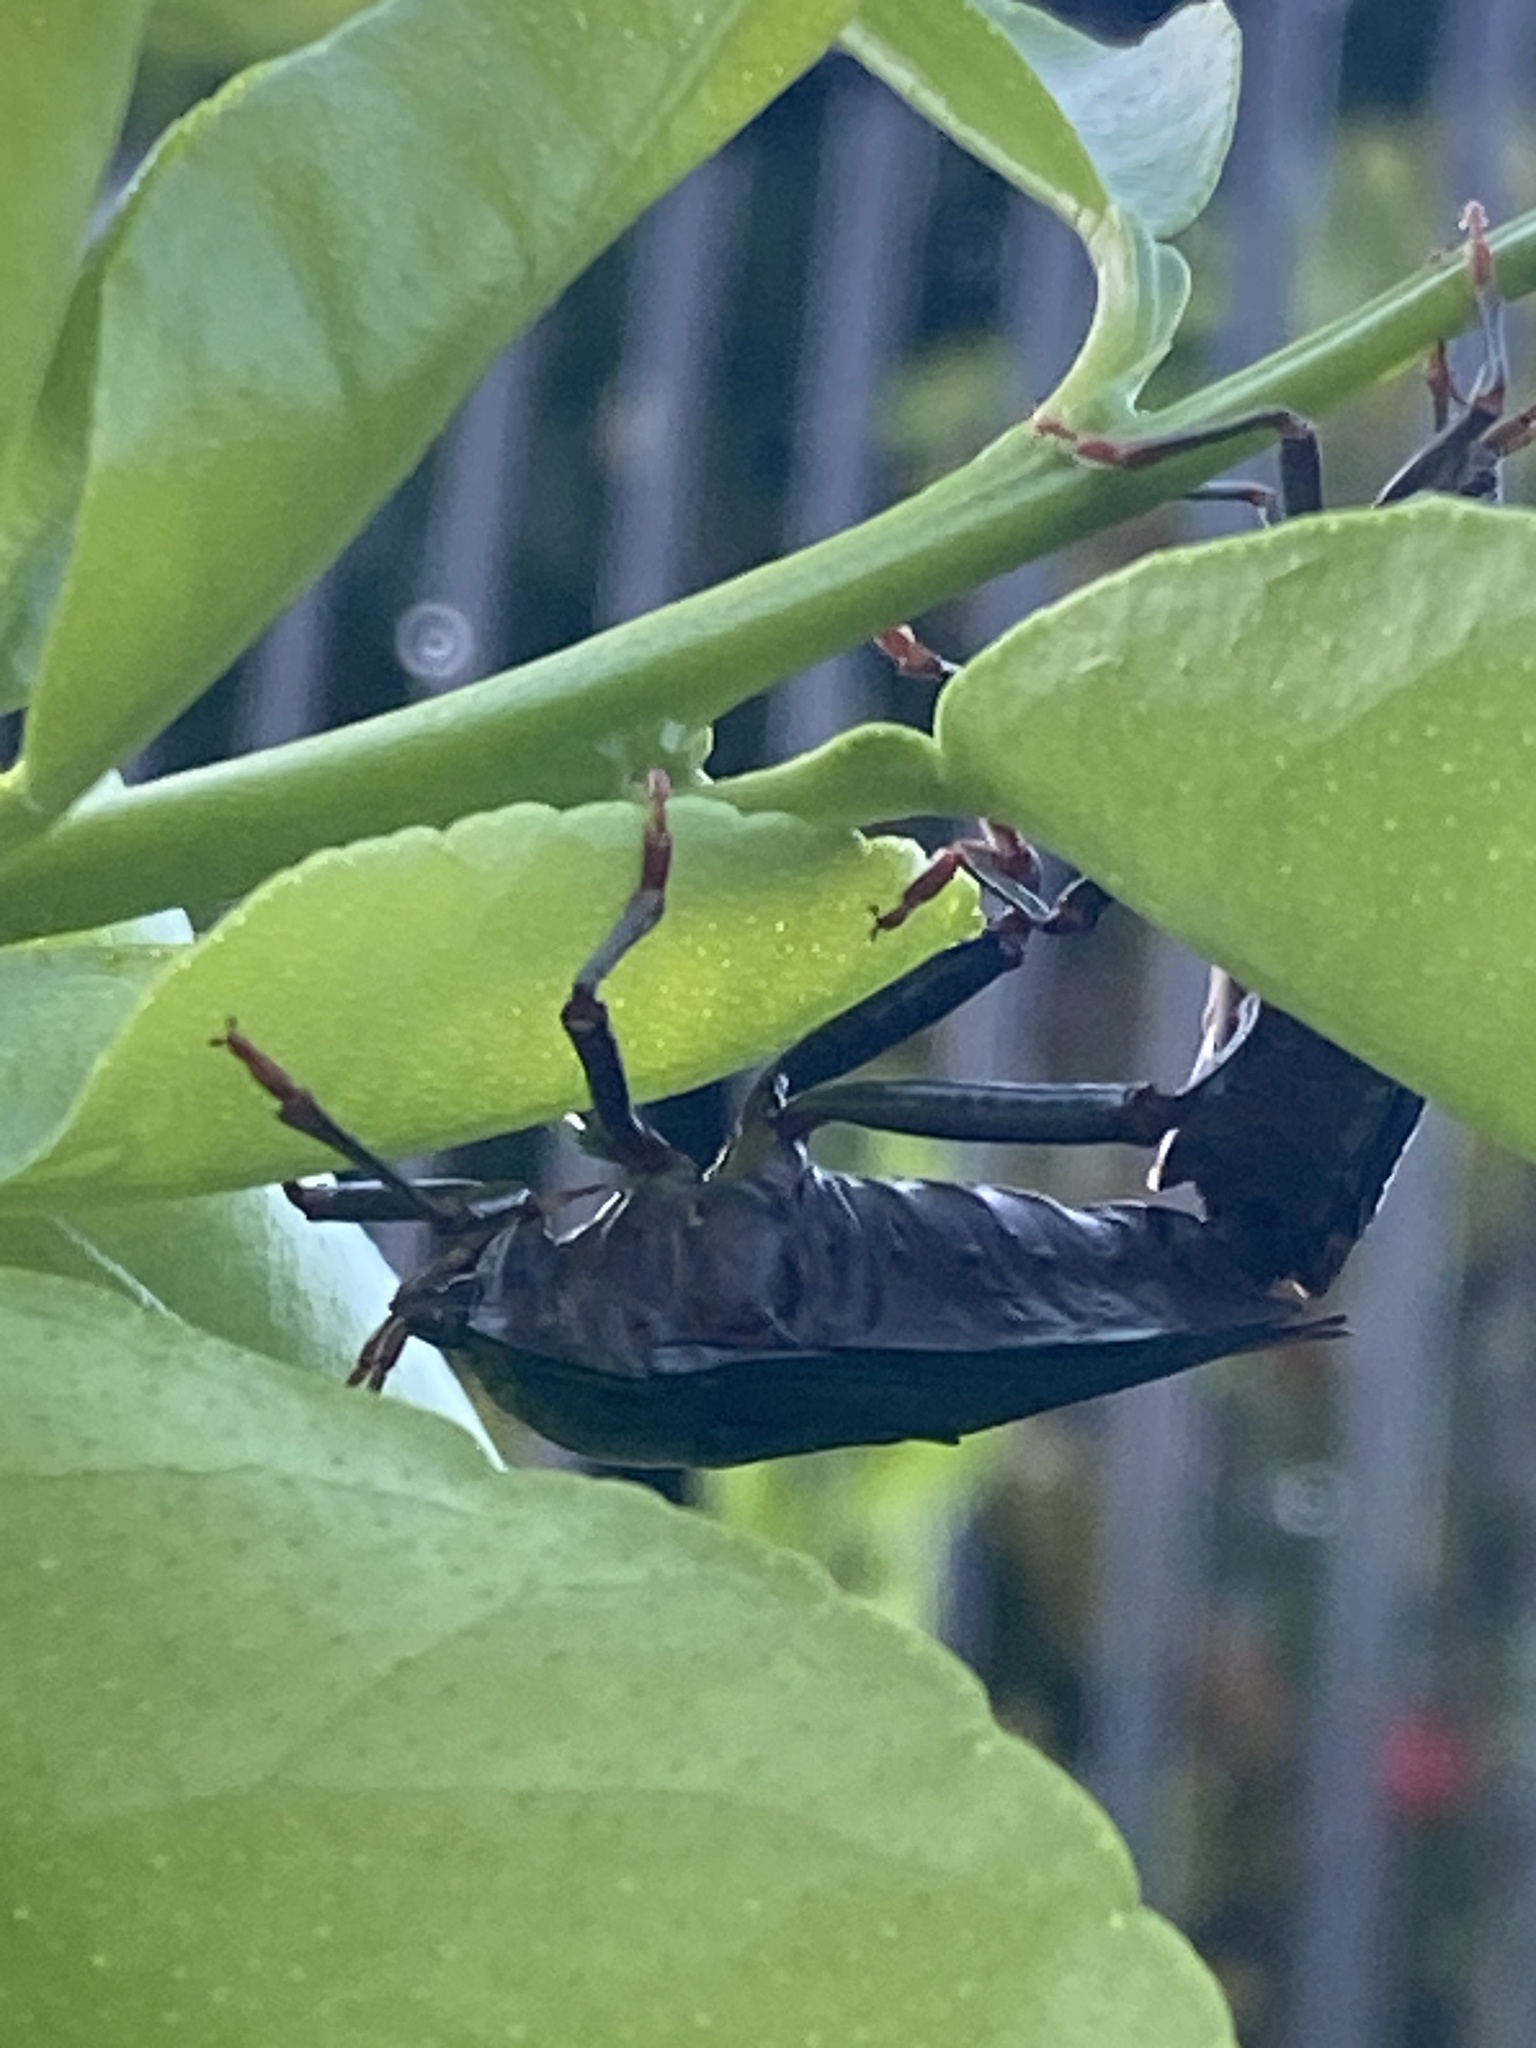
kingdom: Animalia
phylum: Arthropoda
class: Insecta
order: Hemiptera
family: Tessaratomidae
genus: Musgraveia
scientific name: Musgraveia sulciventris
